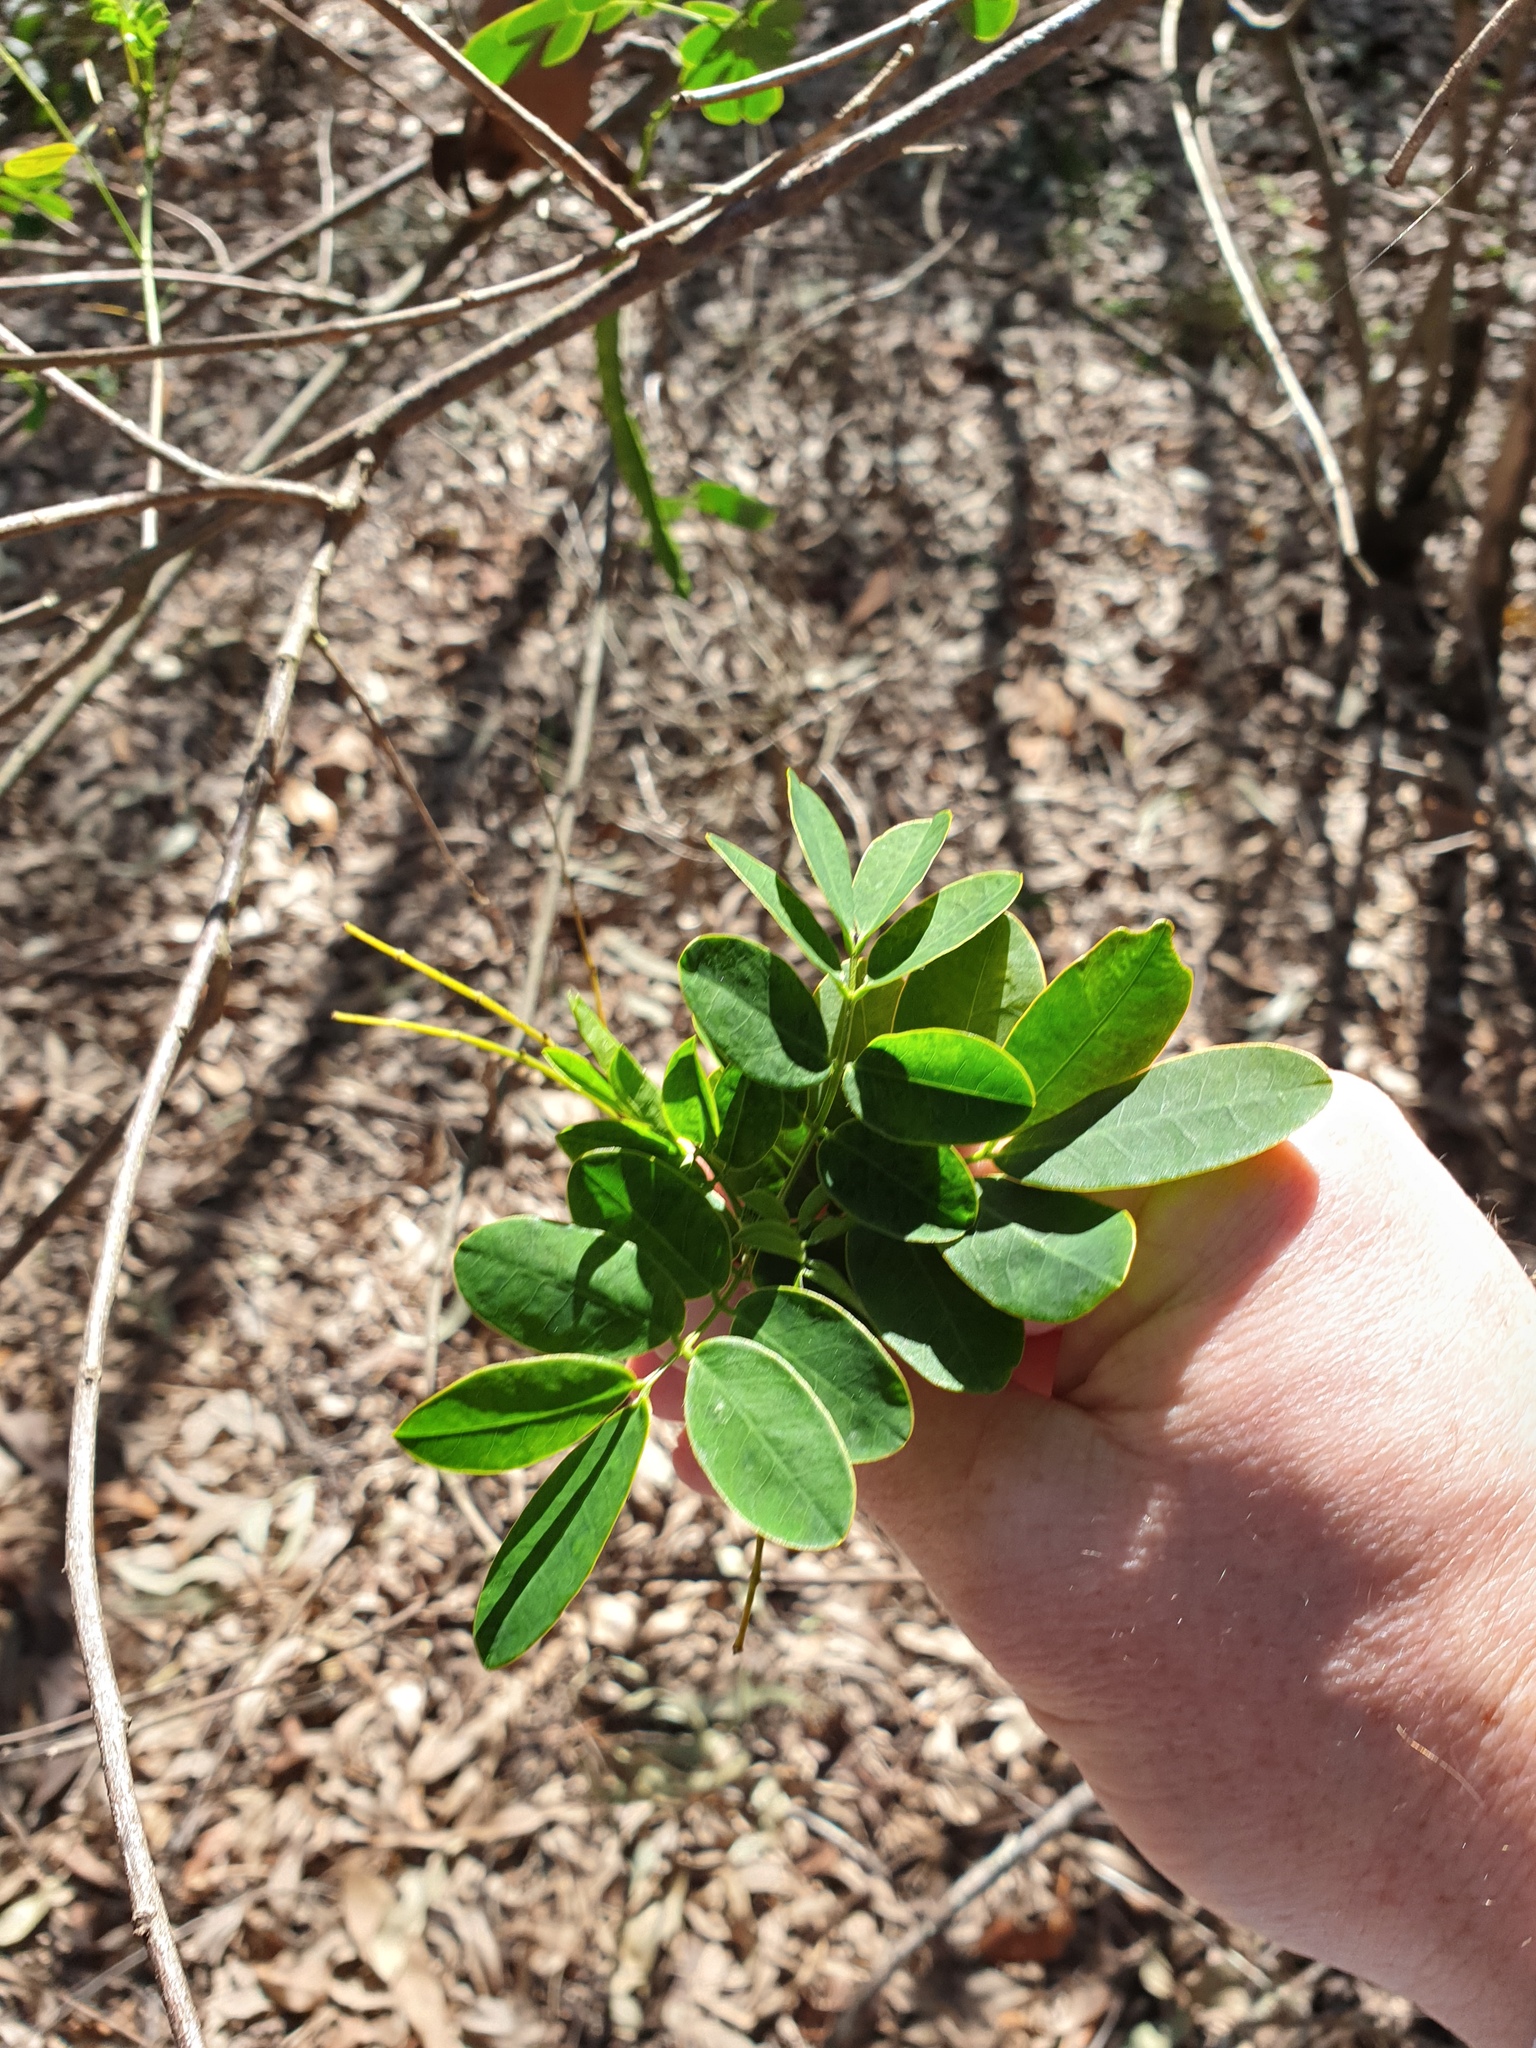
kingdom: Plantae
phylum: Tracheophyta
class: Magnoliopsida
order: Fabales
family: Fabaceae
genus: Senna
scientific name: Senna pendula
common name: Easter cassia
